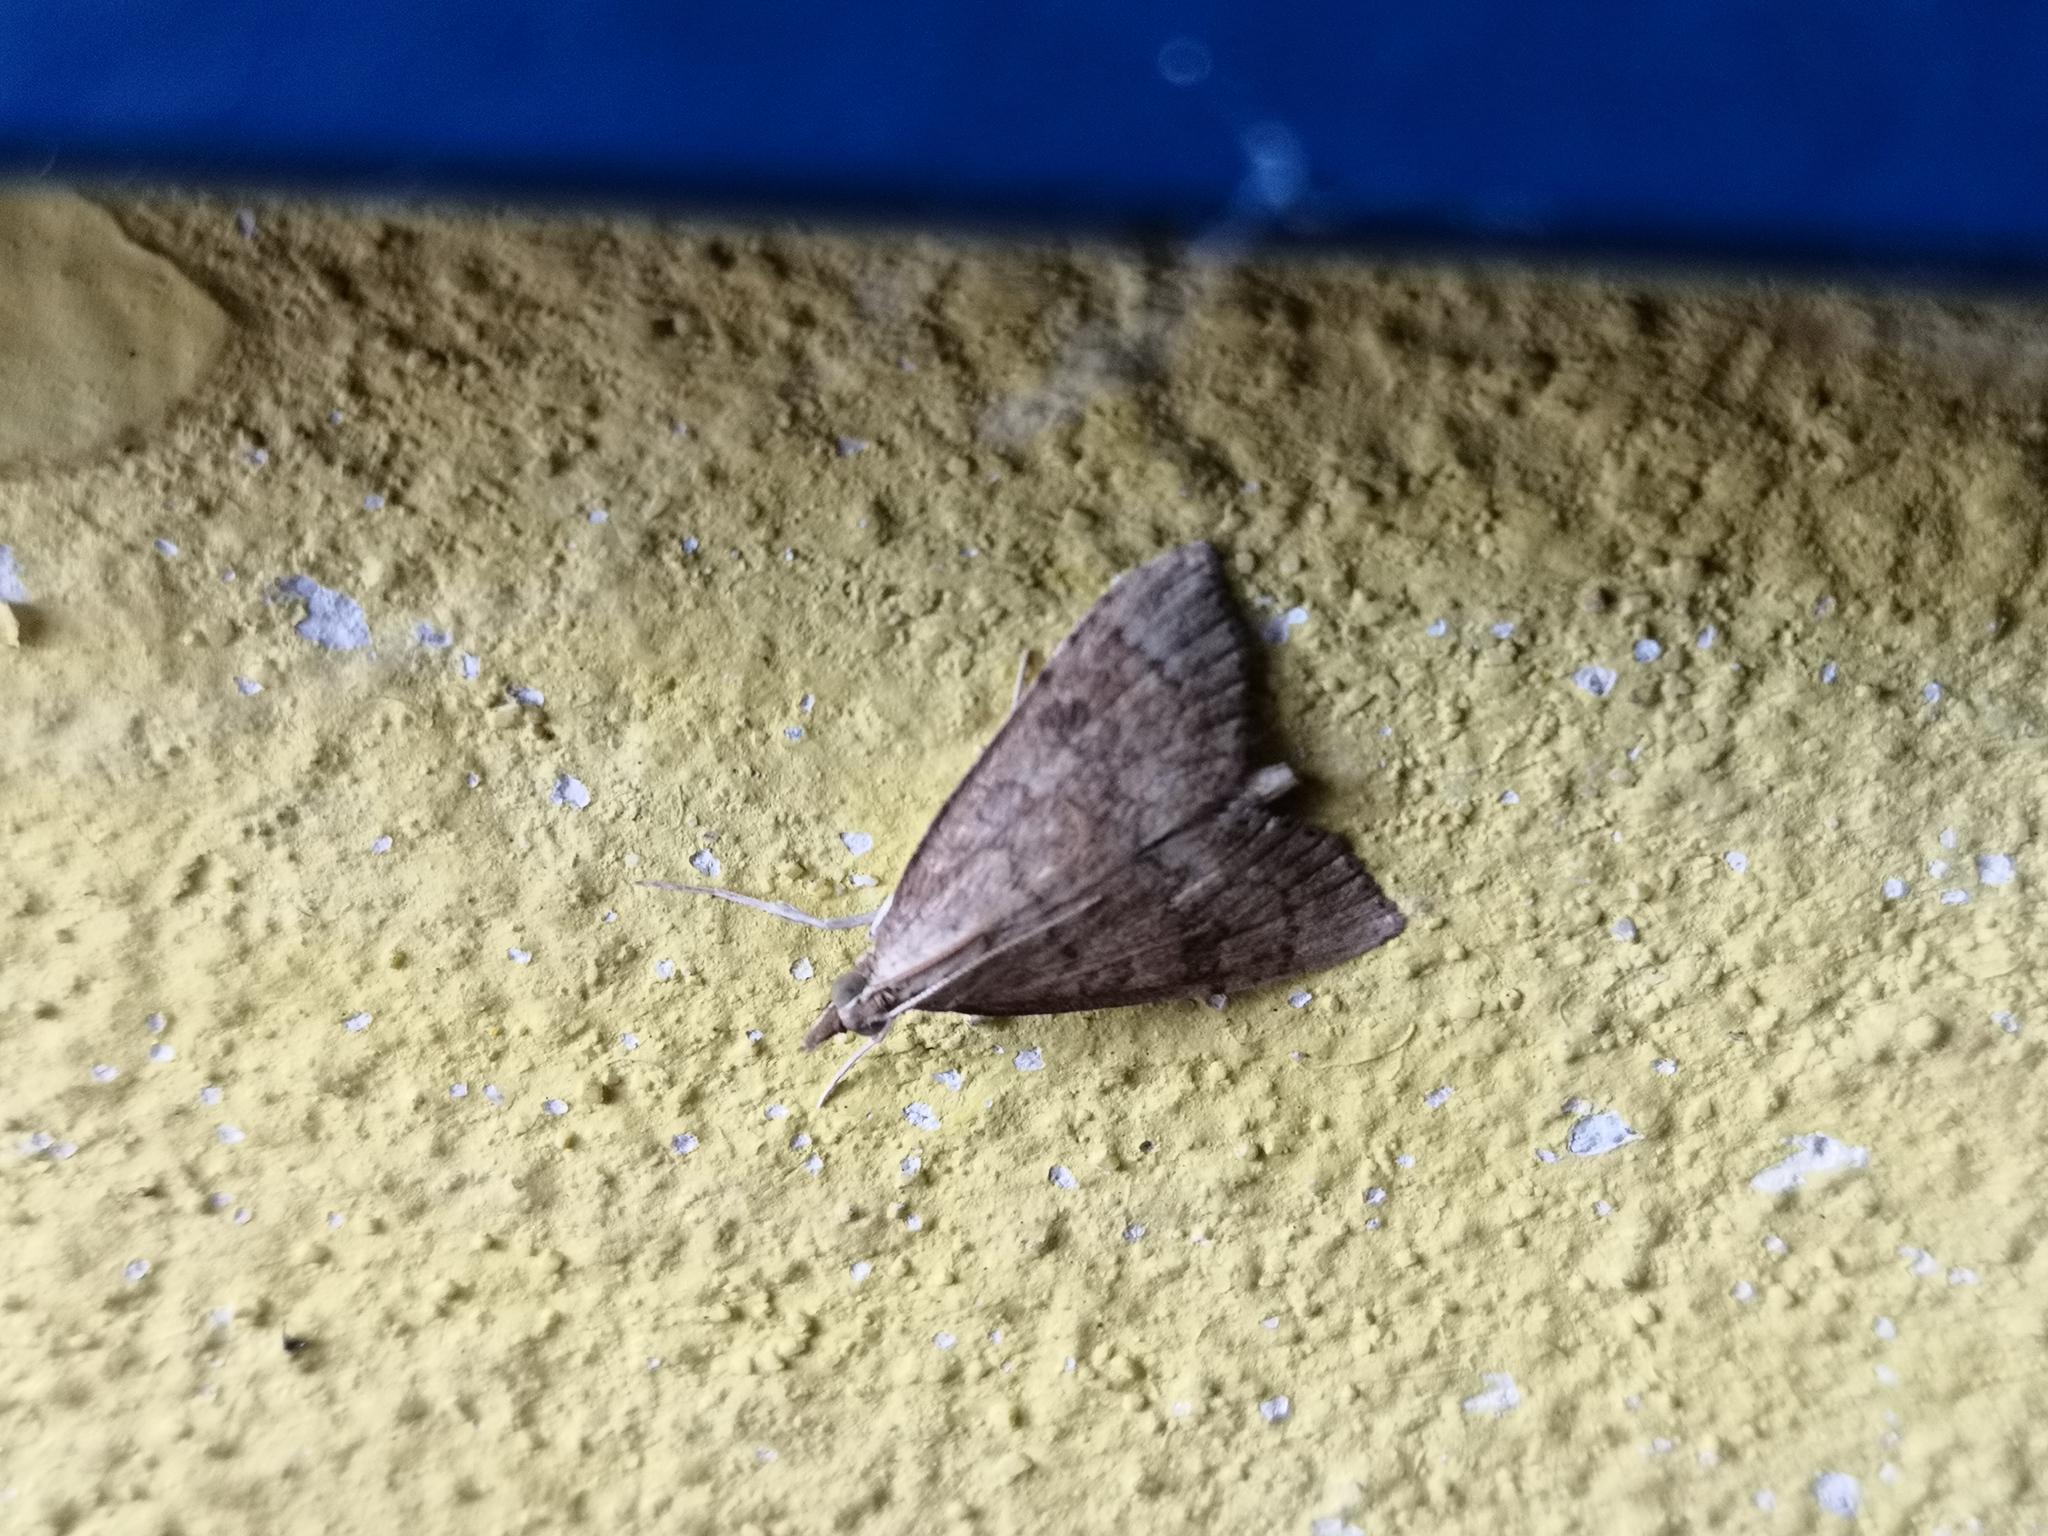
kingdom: Animalia
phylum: Arthropoda
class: Insecta
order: Lepidoptera
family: Crambidae
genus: Udea
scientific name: Udea fulvalis
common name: Fulvous pearl
